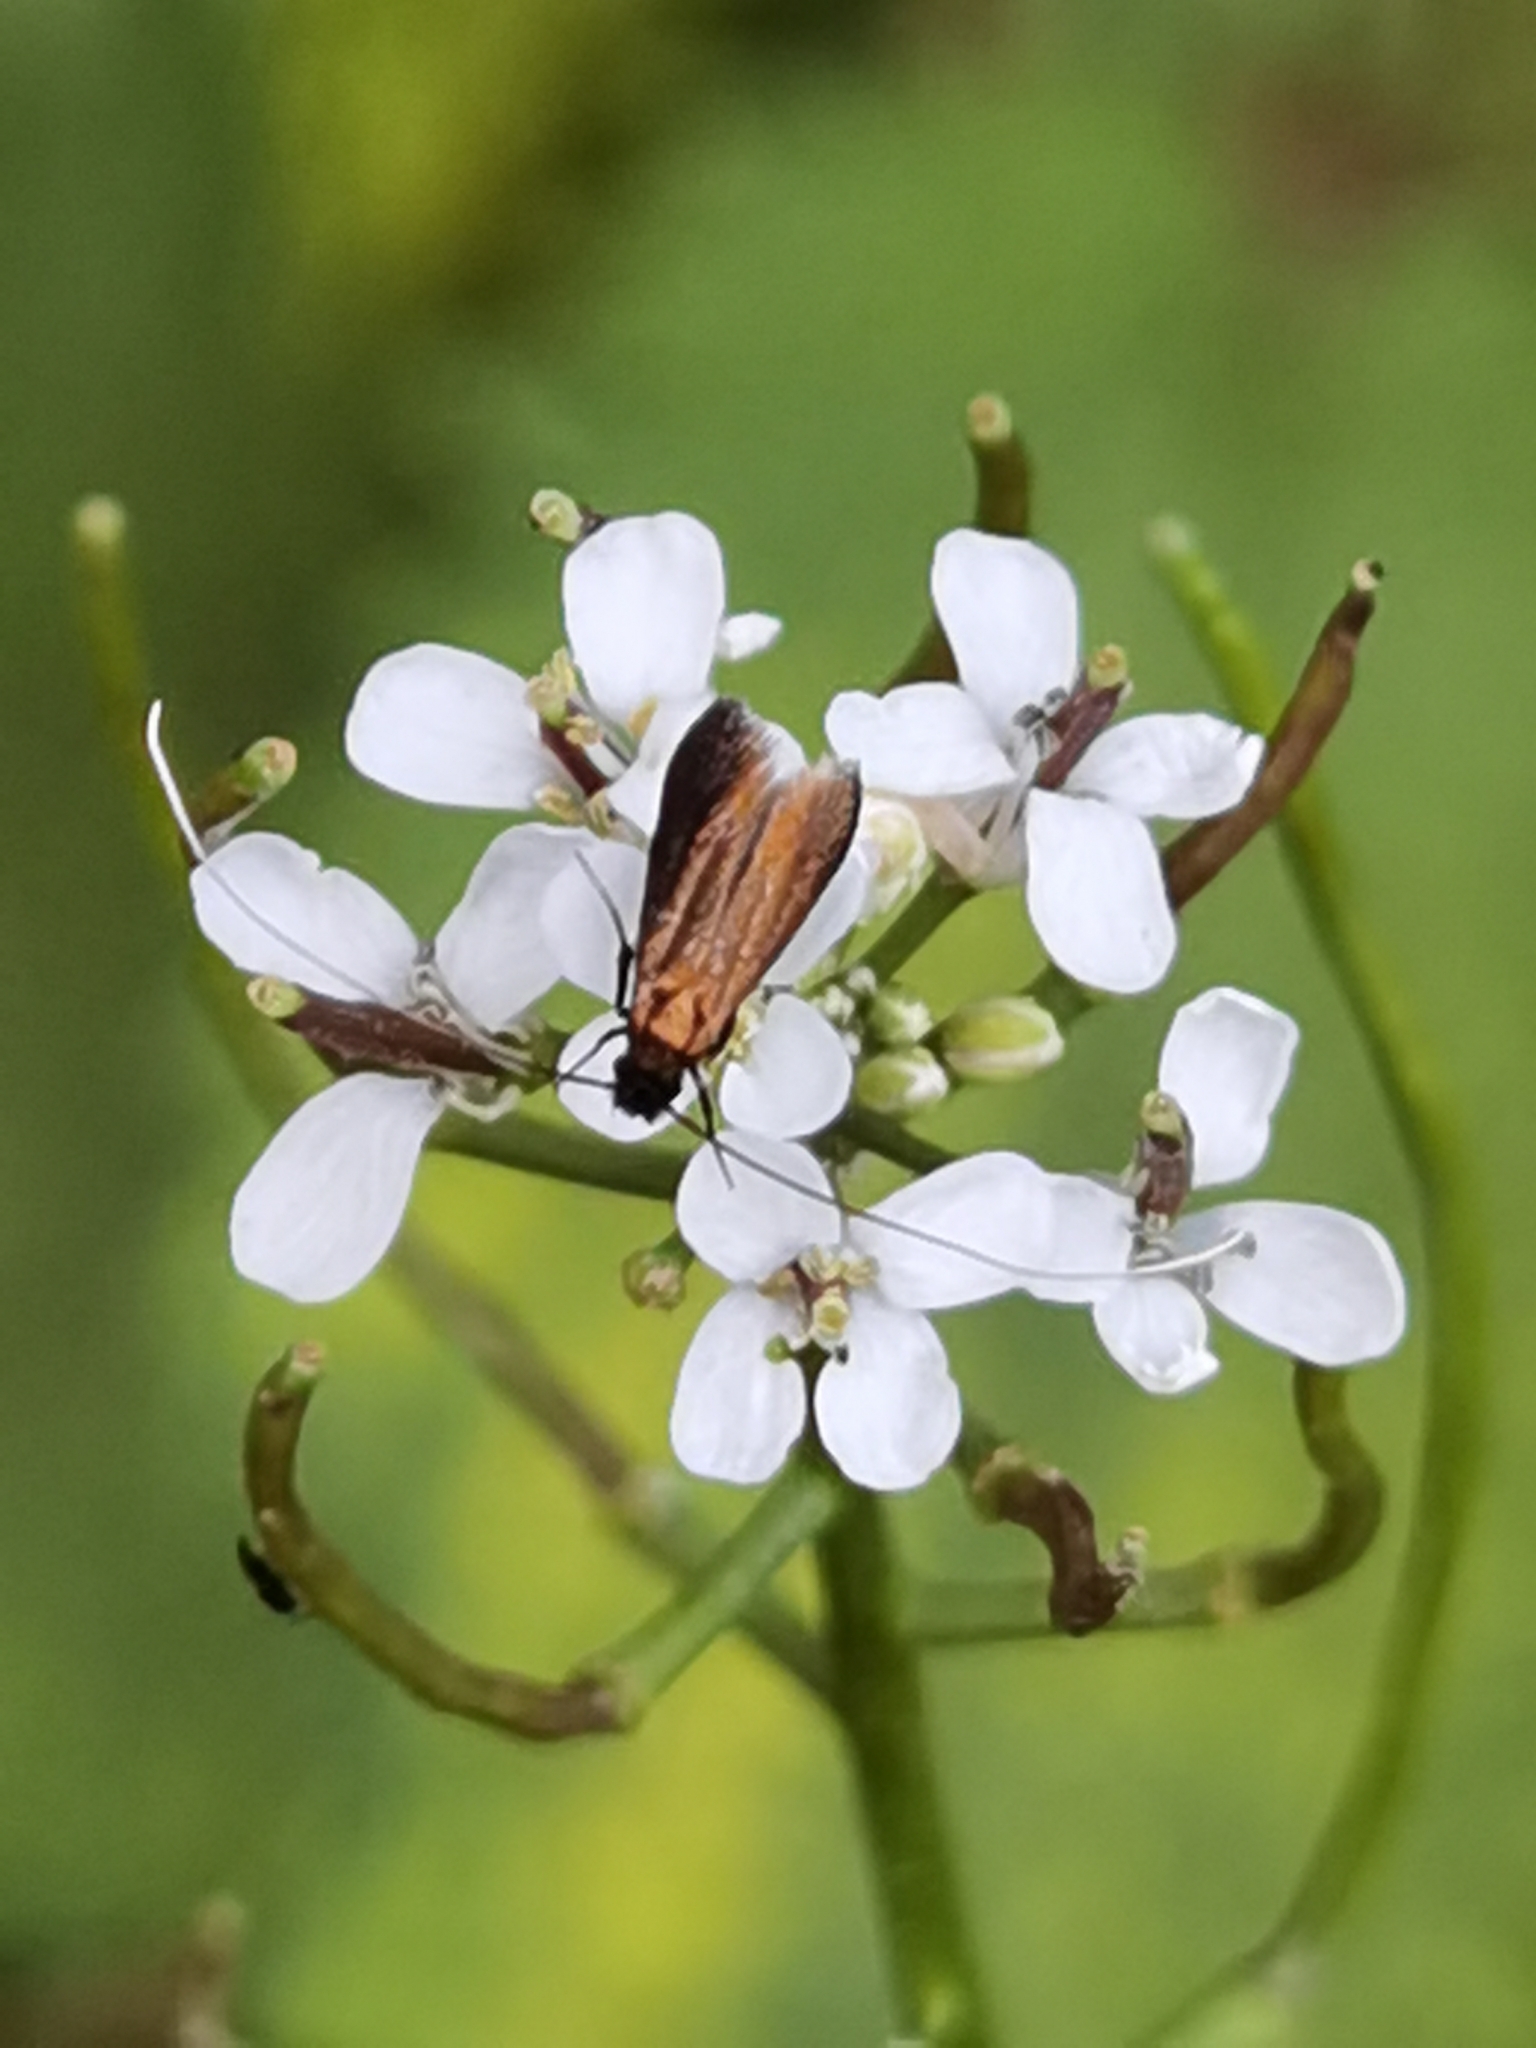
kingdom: Animalia
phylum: Arthropoda
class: Insecta
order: Lepidoptera
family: Adelidae
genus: Cauchas
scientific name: Cauchas rufimitrella
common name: Meadow long-horn
